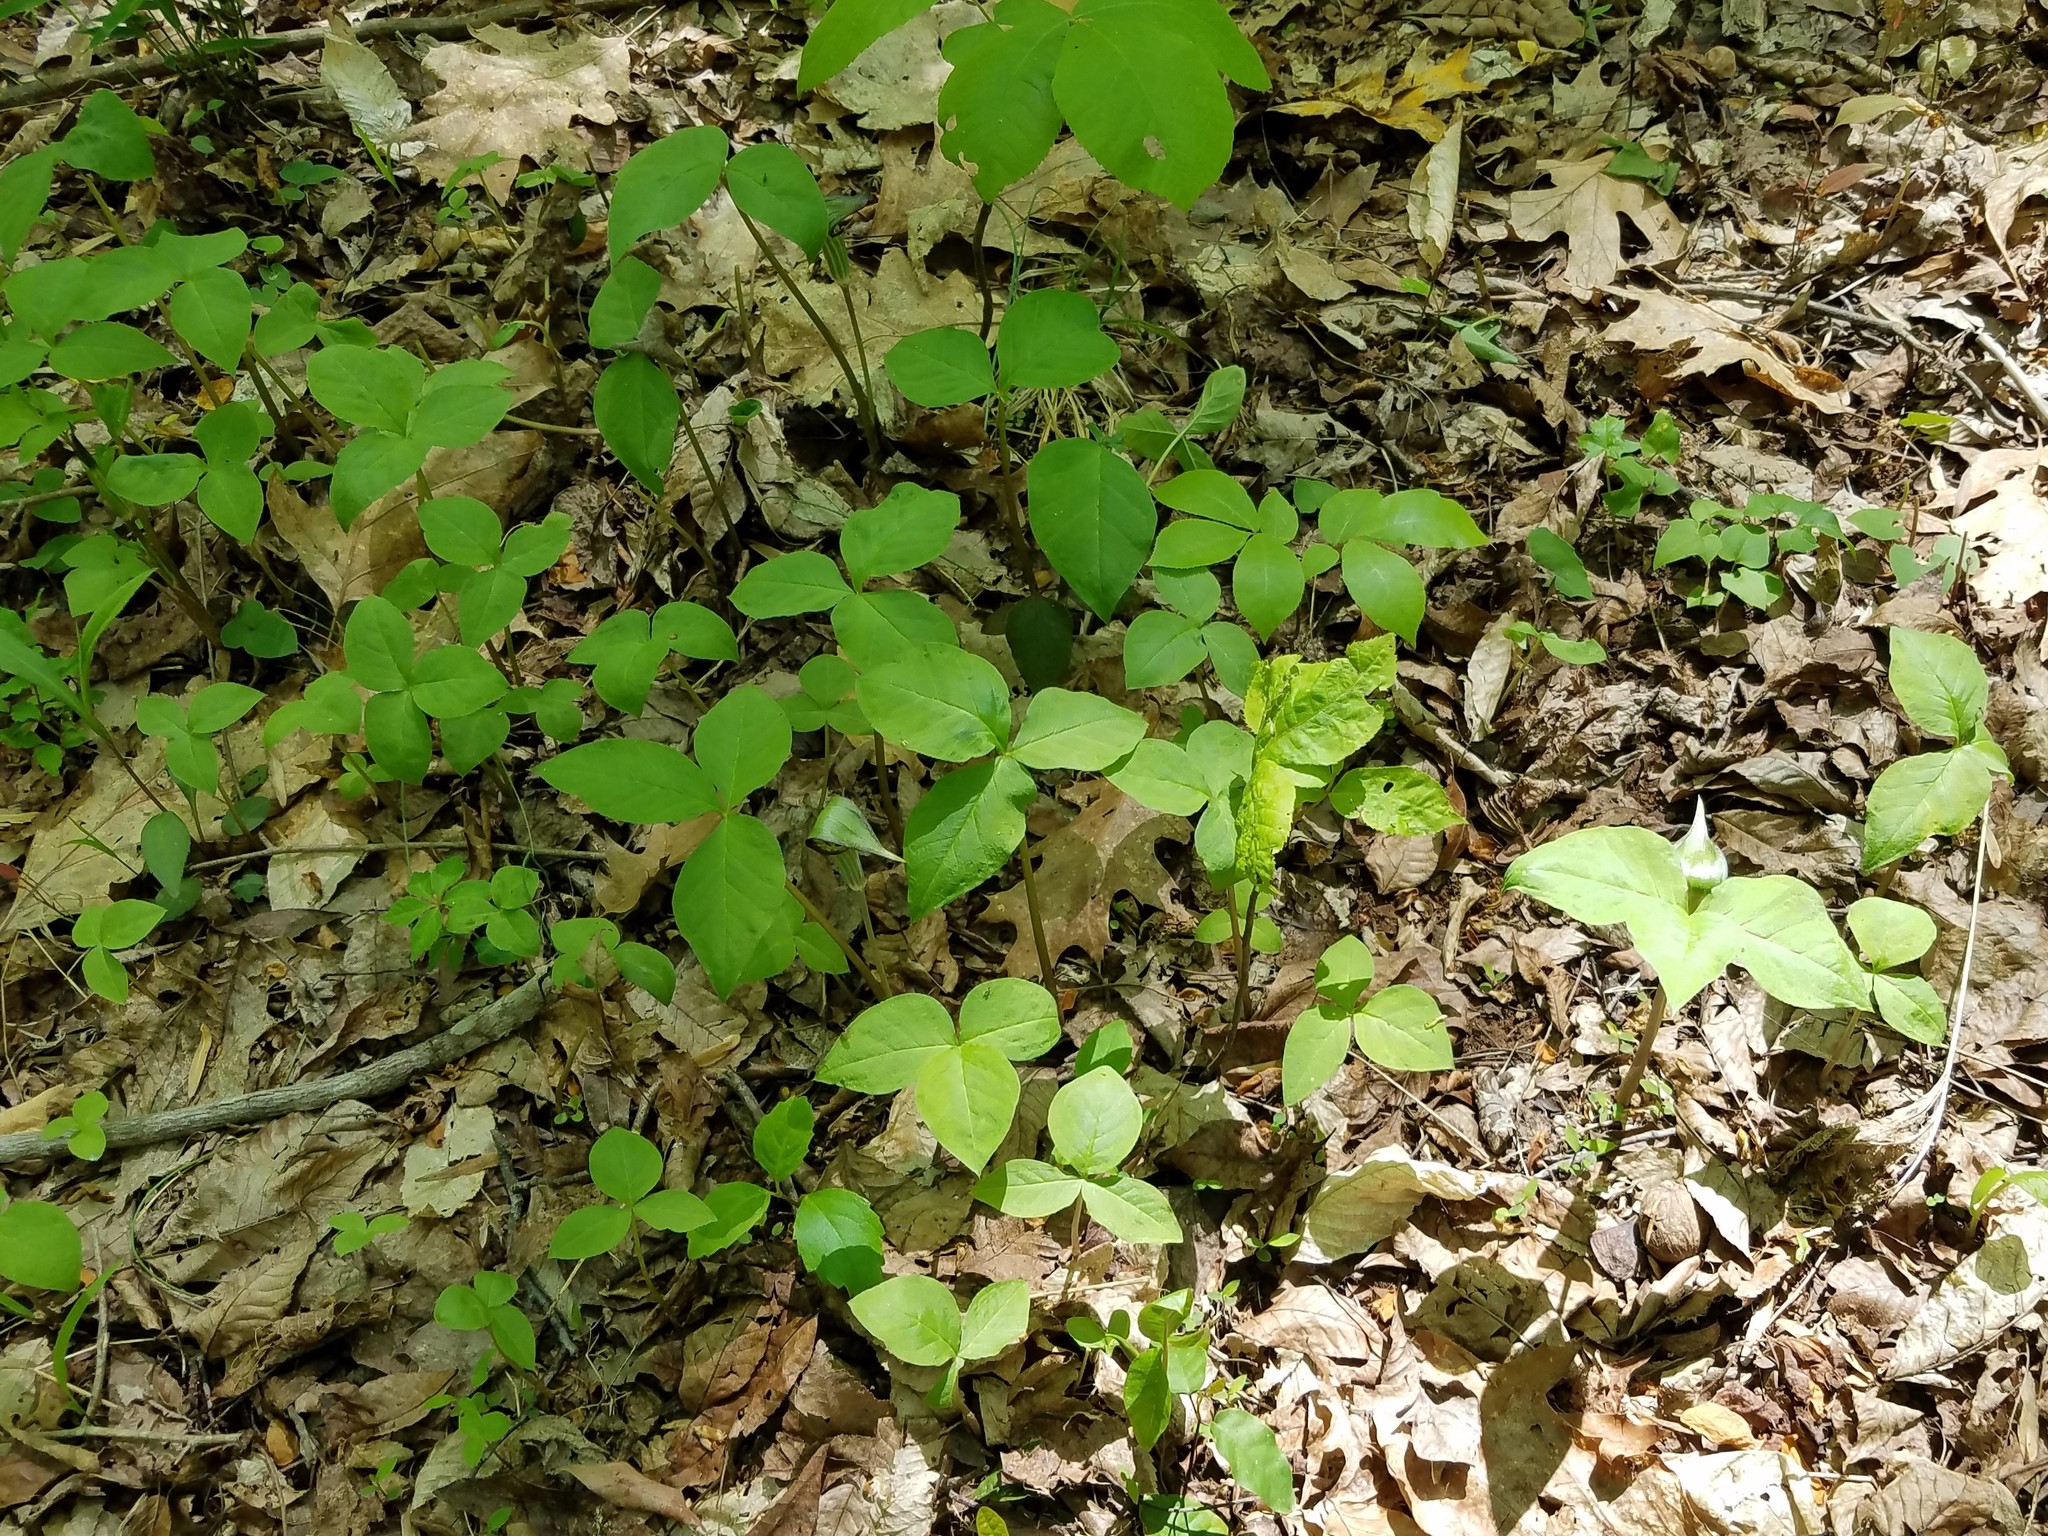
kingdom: Plantae
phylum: Tracheophyta
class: Liliopsida
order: Alismatales
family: Araceae
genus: Arisaema
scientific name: Arisaema triphyllum
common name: Jack-in-the-pulpit
